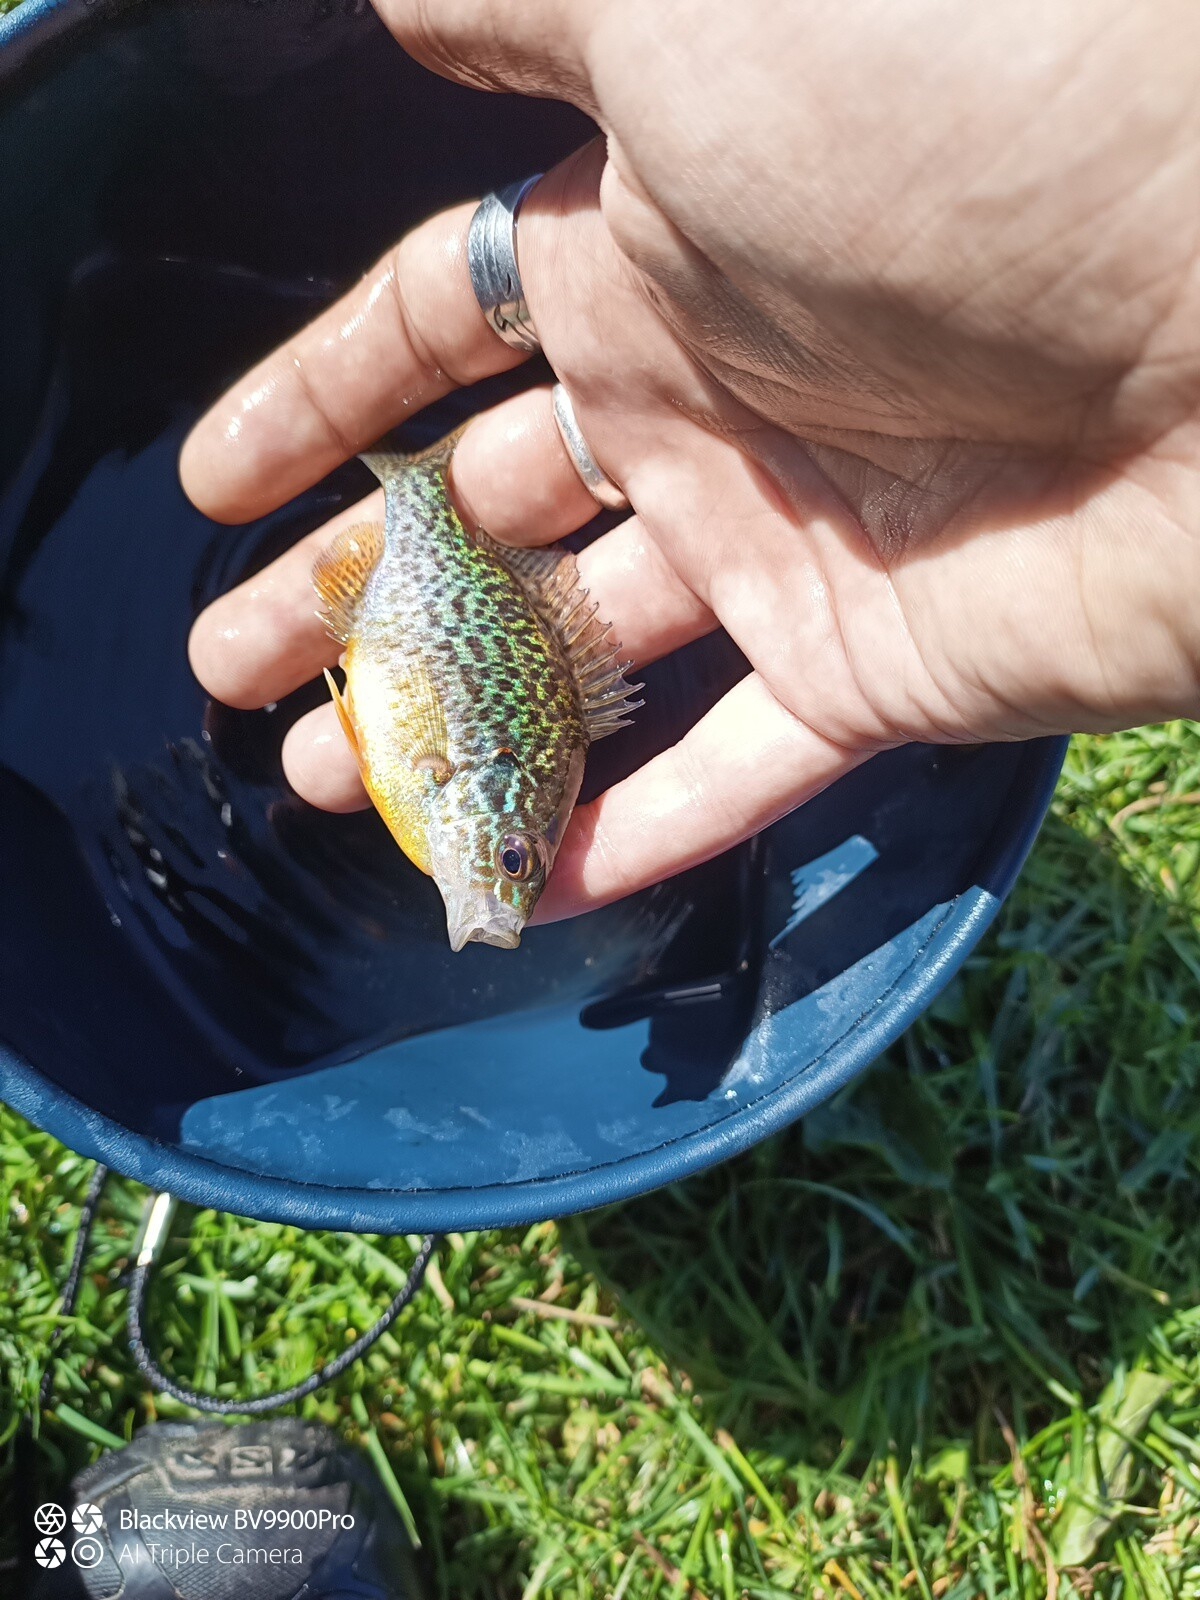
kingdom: Animalia
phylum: Chordata
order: Perciformes
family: Centrarchidae
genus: Lepomis
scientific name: Lepomis gibbosus
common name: Pumpkinseed
